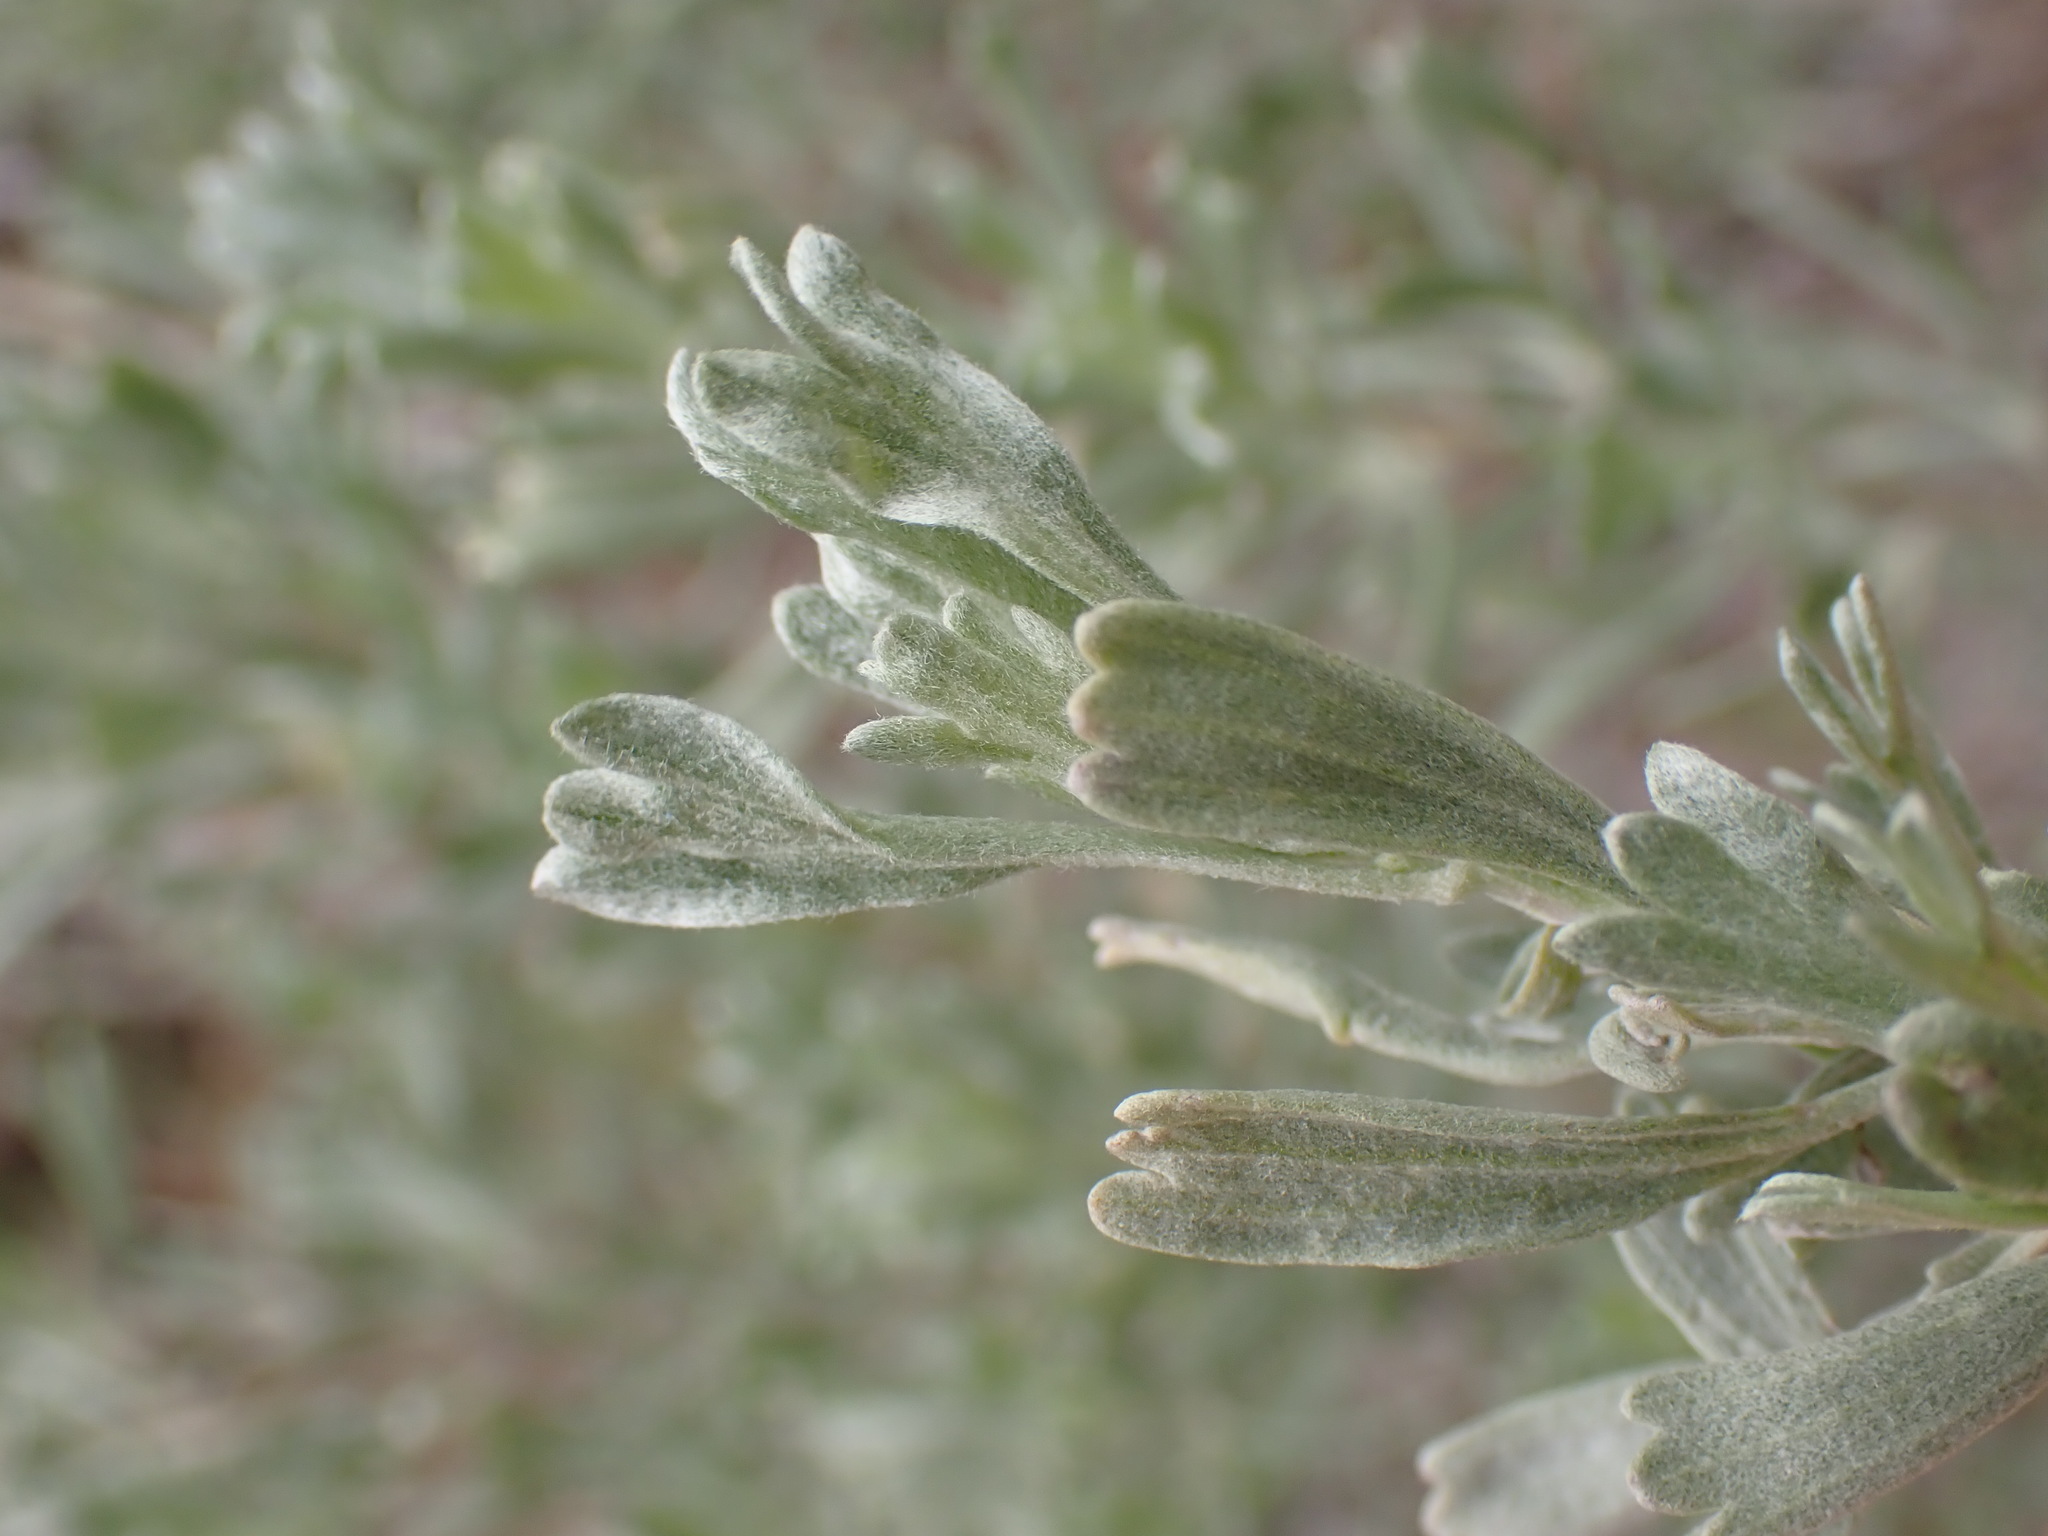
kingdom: Plantae
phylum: Tracheophyta
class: Magnoliopsida
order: Asterales
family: Asteraceae
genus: Artemisia
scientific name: Artemisia tridentata
